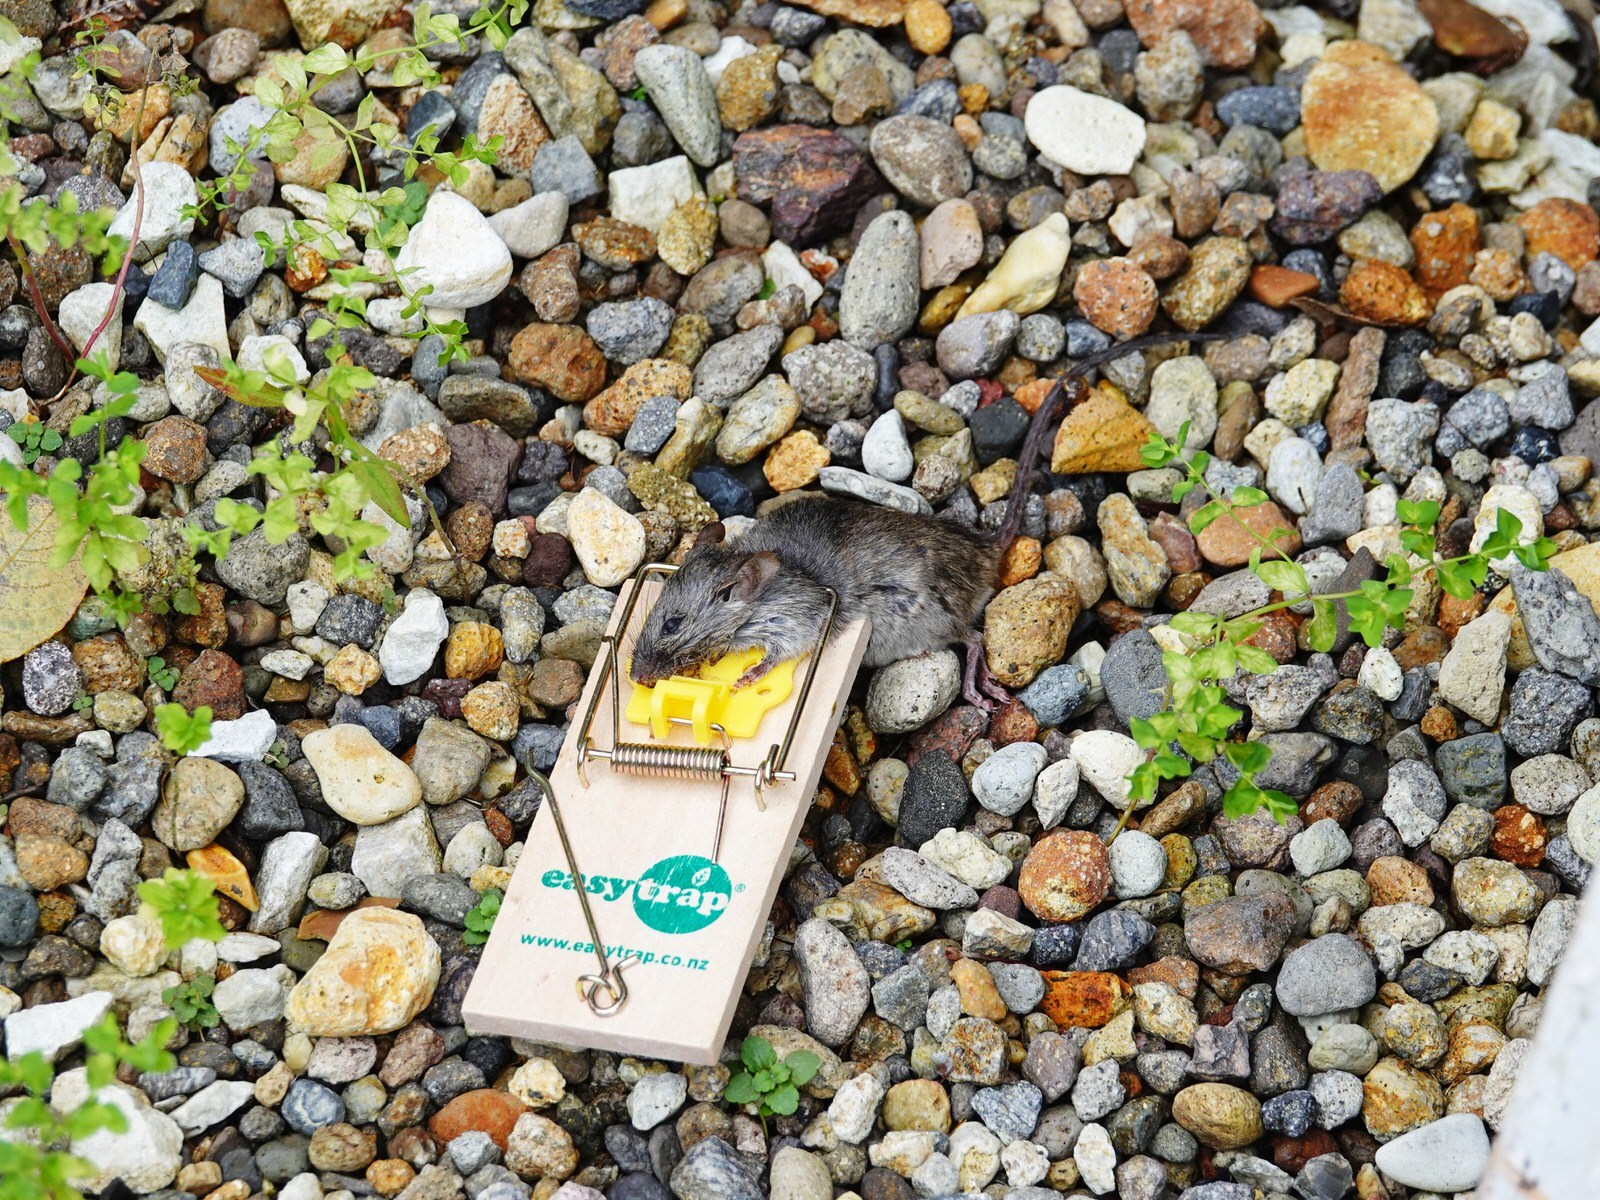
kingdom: Animalia
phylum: Chordata
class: Mammalia
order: Rodentia
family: Muridae
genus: Mus
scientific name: Mus musculus
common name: House mouse
